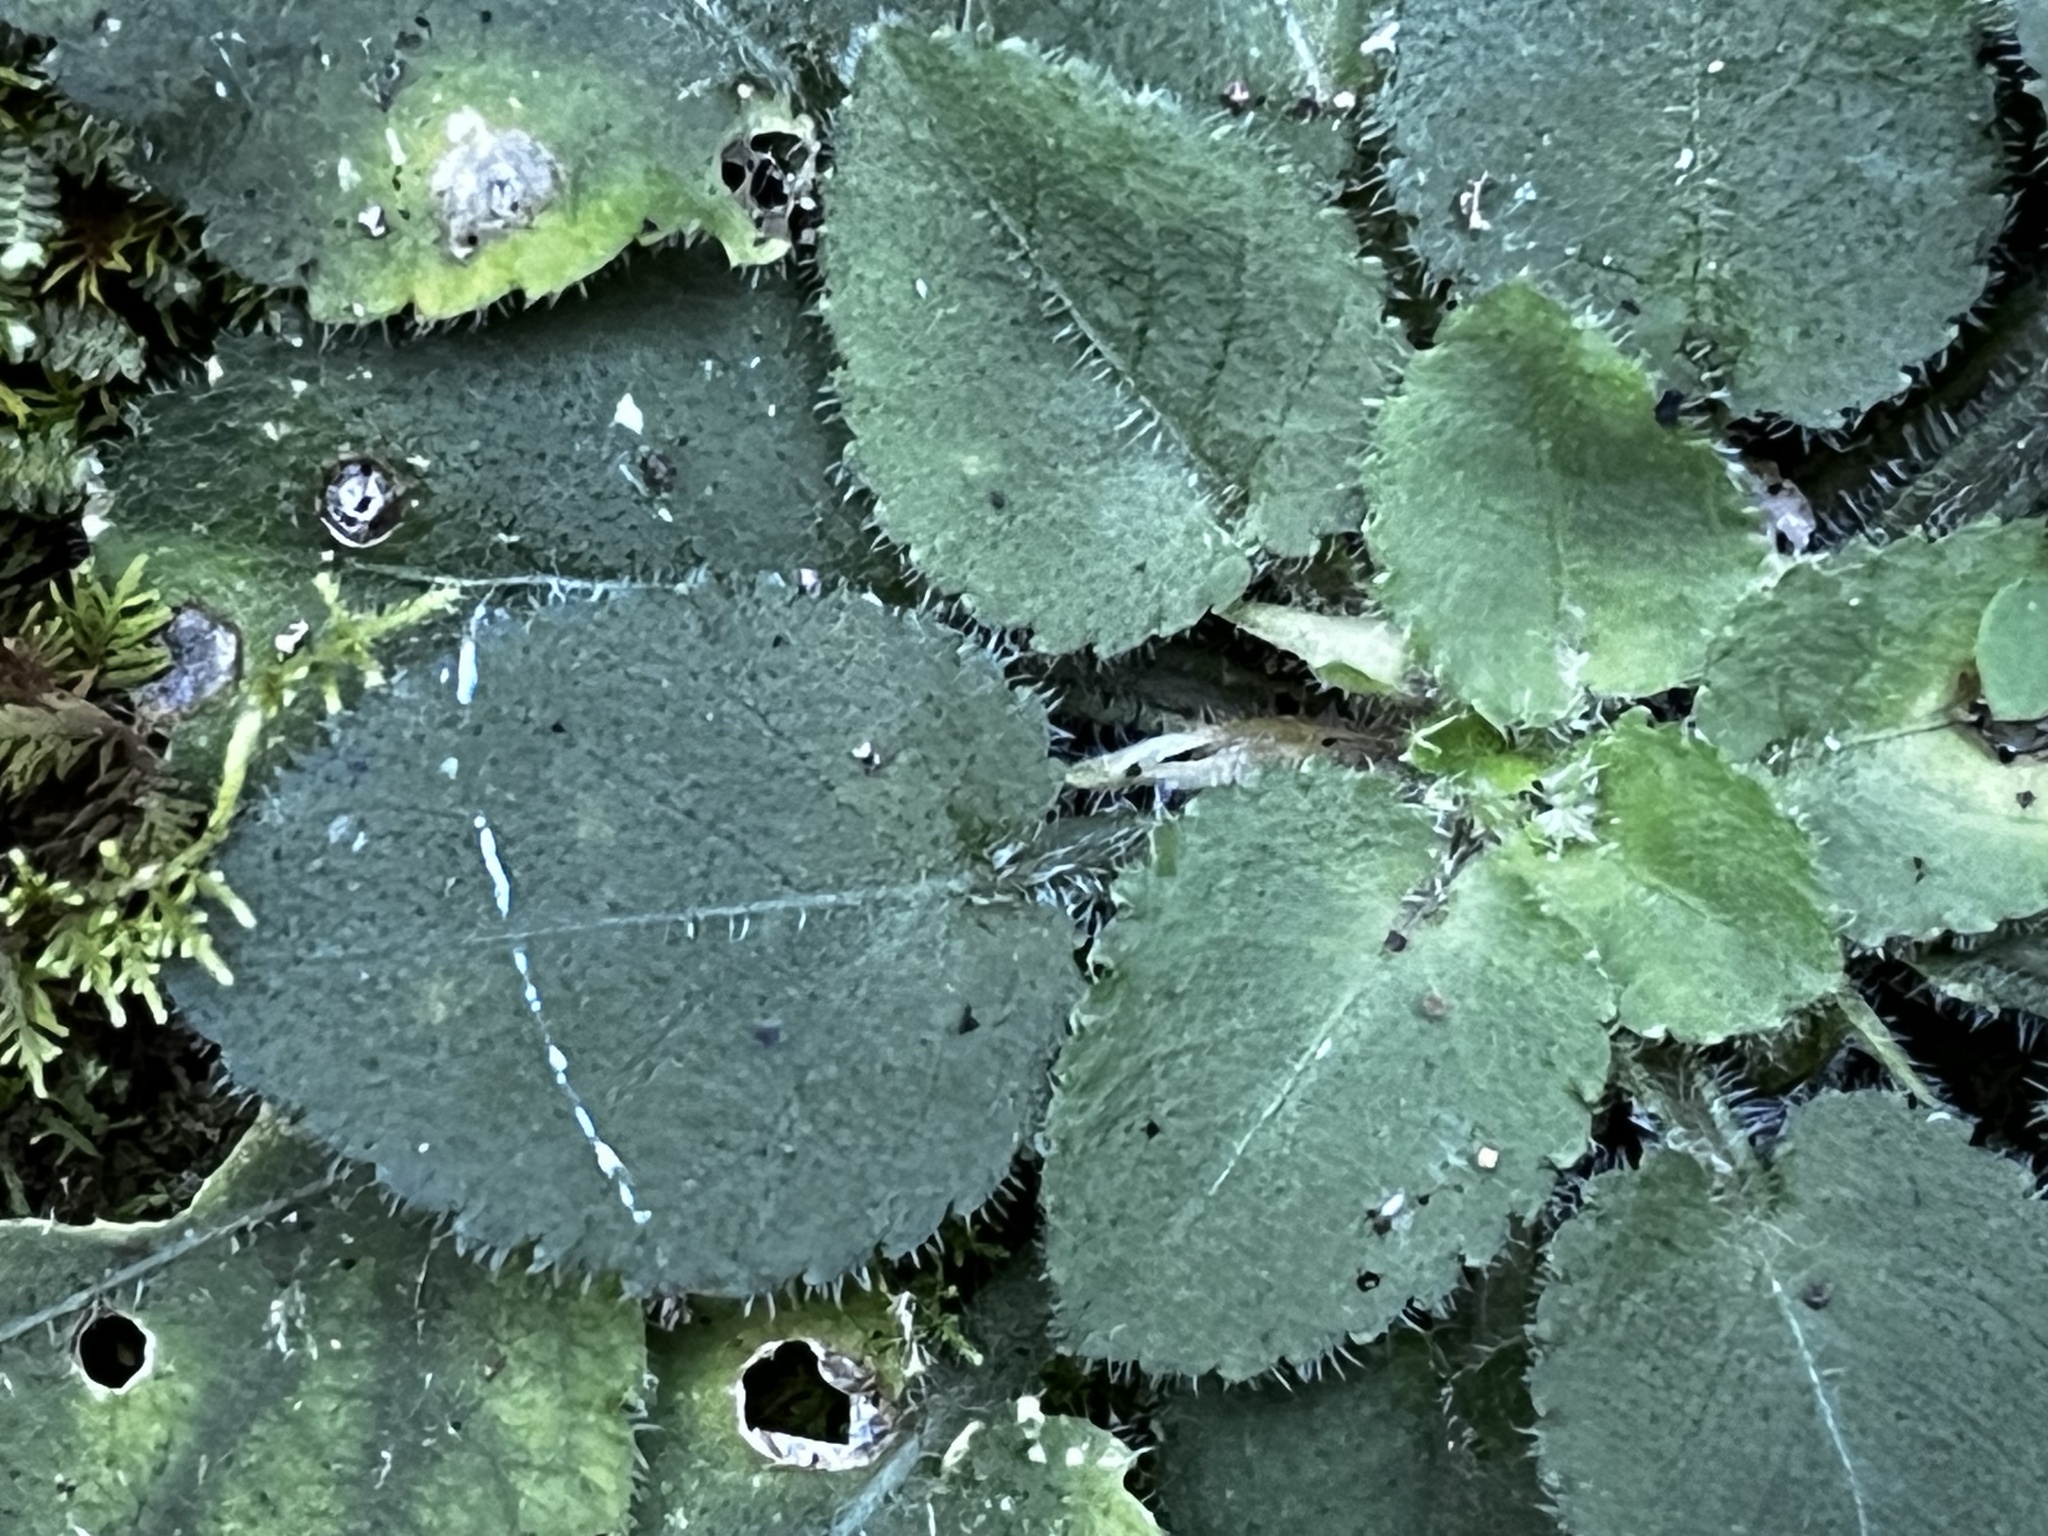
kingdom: Plantae
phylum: Tracheophyta
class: Magnoliopsida
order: Malpighiales
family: Violaceae
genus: Viola
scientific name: Viola diffusa
